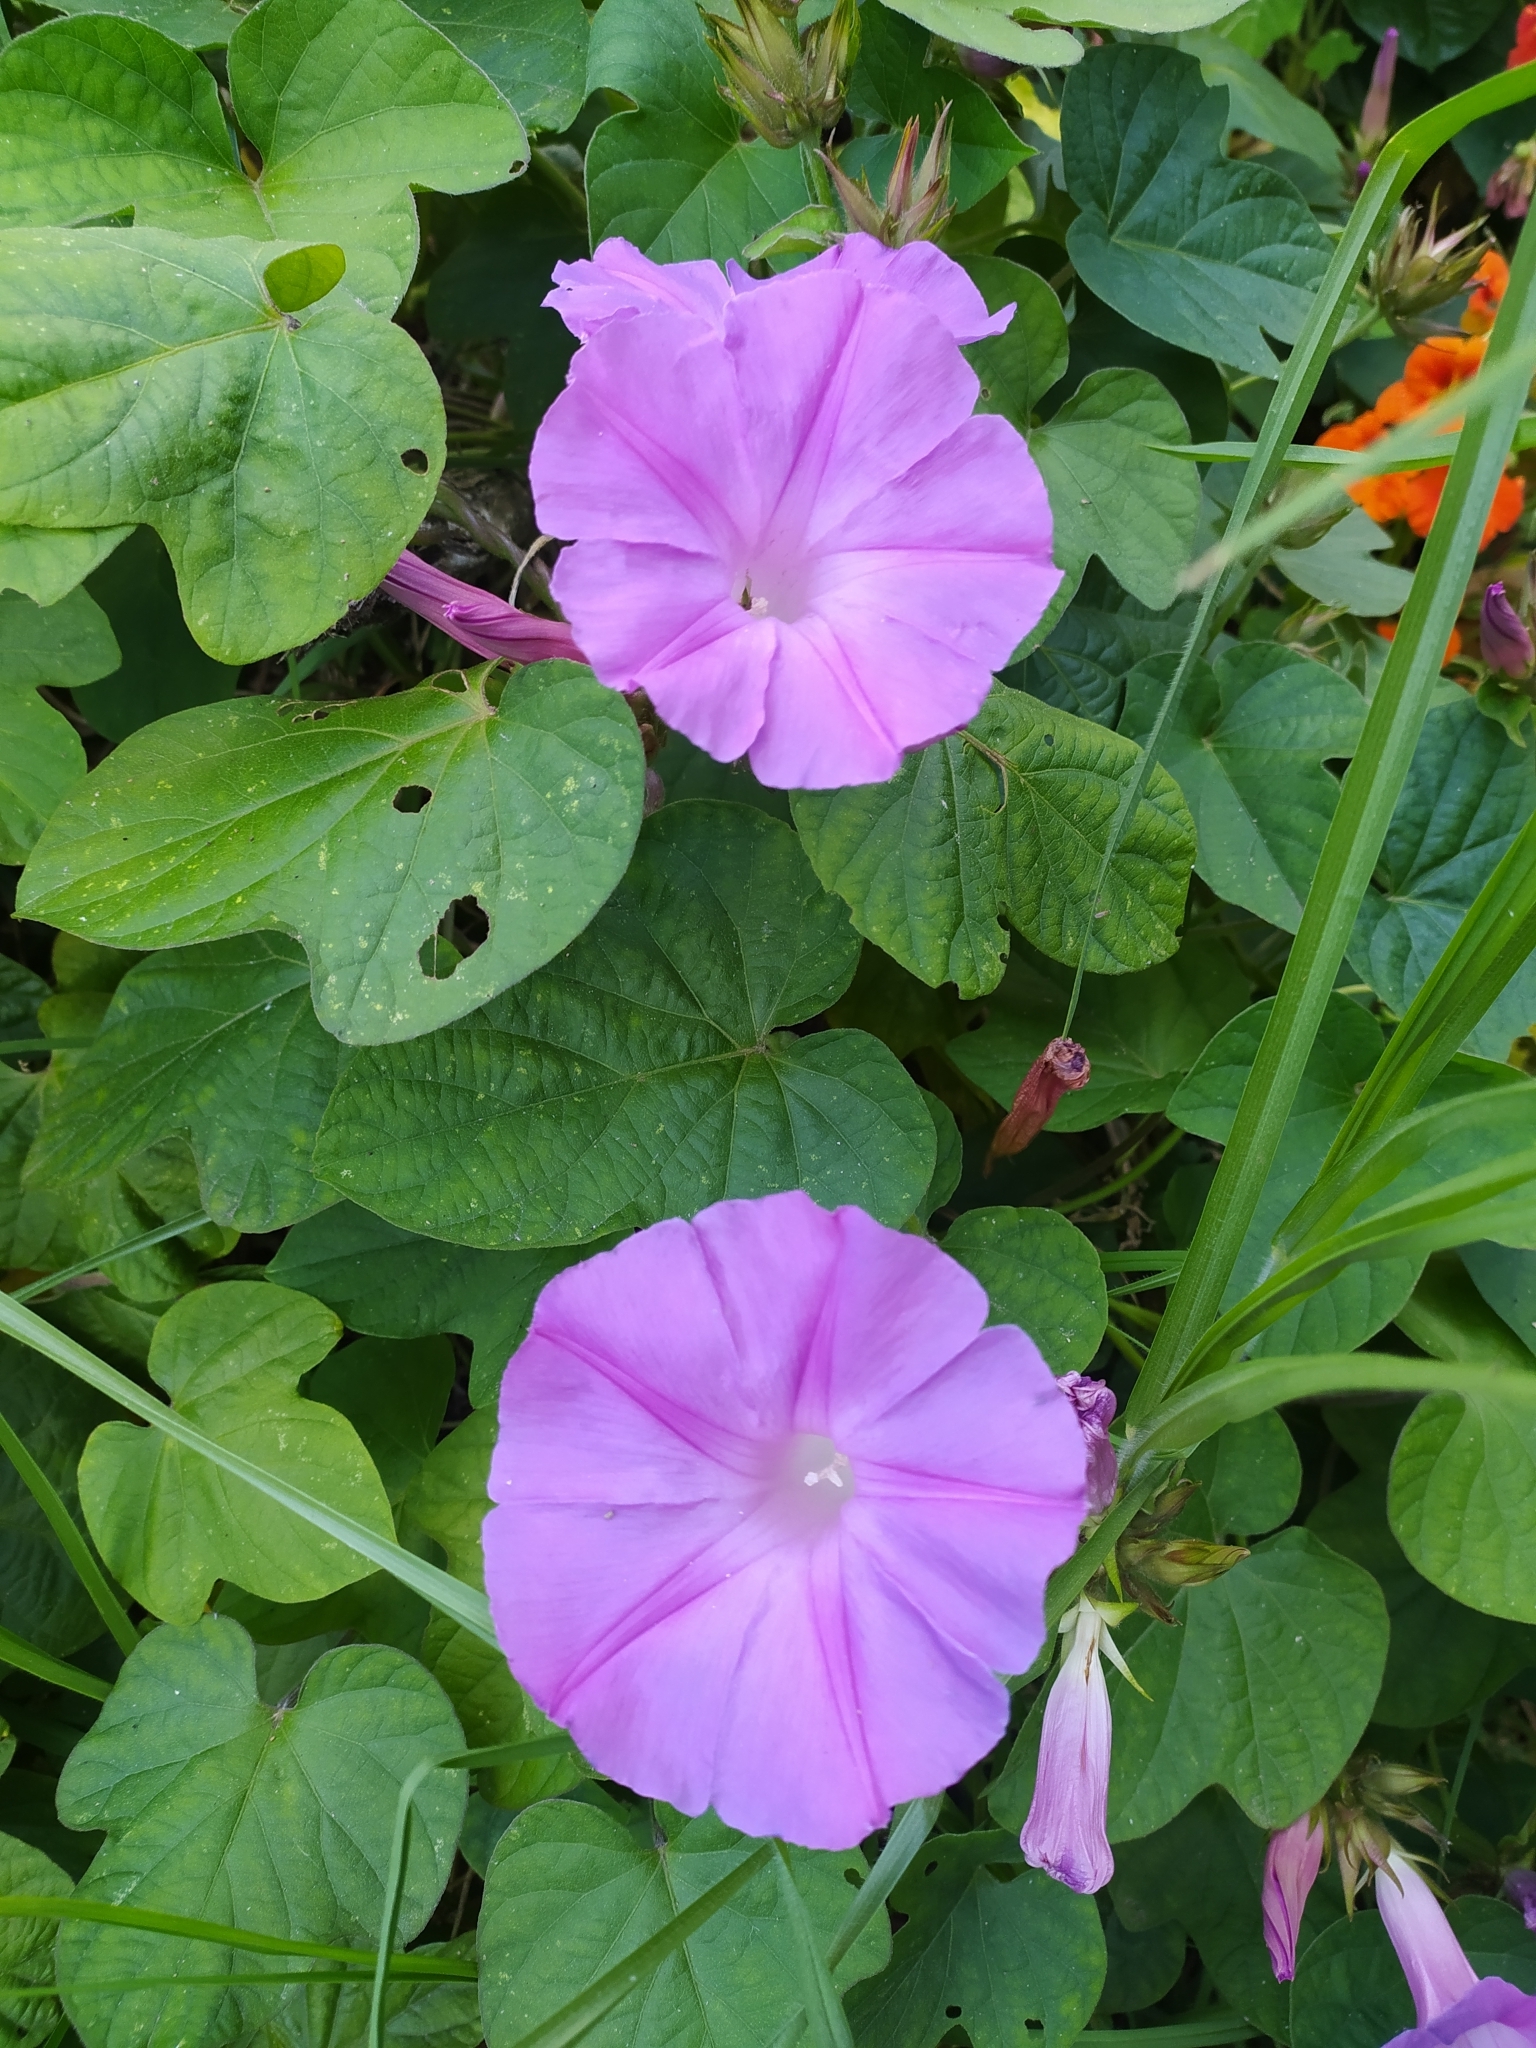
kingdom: Plantae
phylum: Tracheophyta
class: Magnoliopsida
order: Solanales
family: Convolvulaceae
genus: Ipomoea
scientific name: Ipomoea indica
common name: Blue dawnflower
